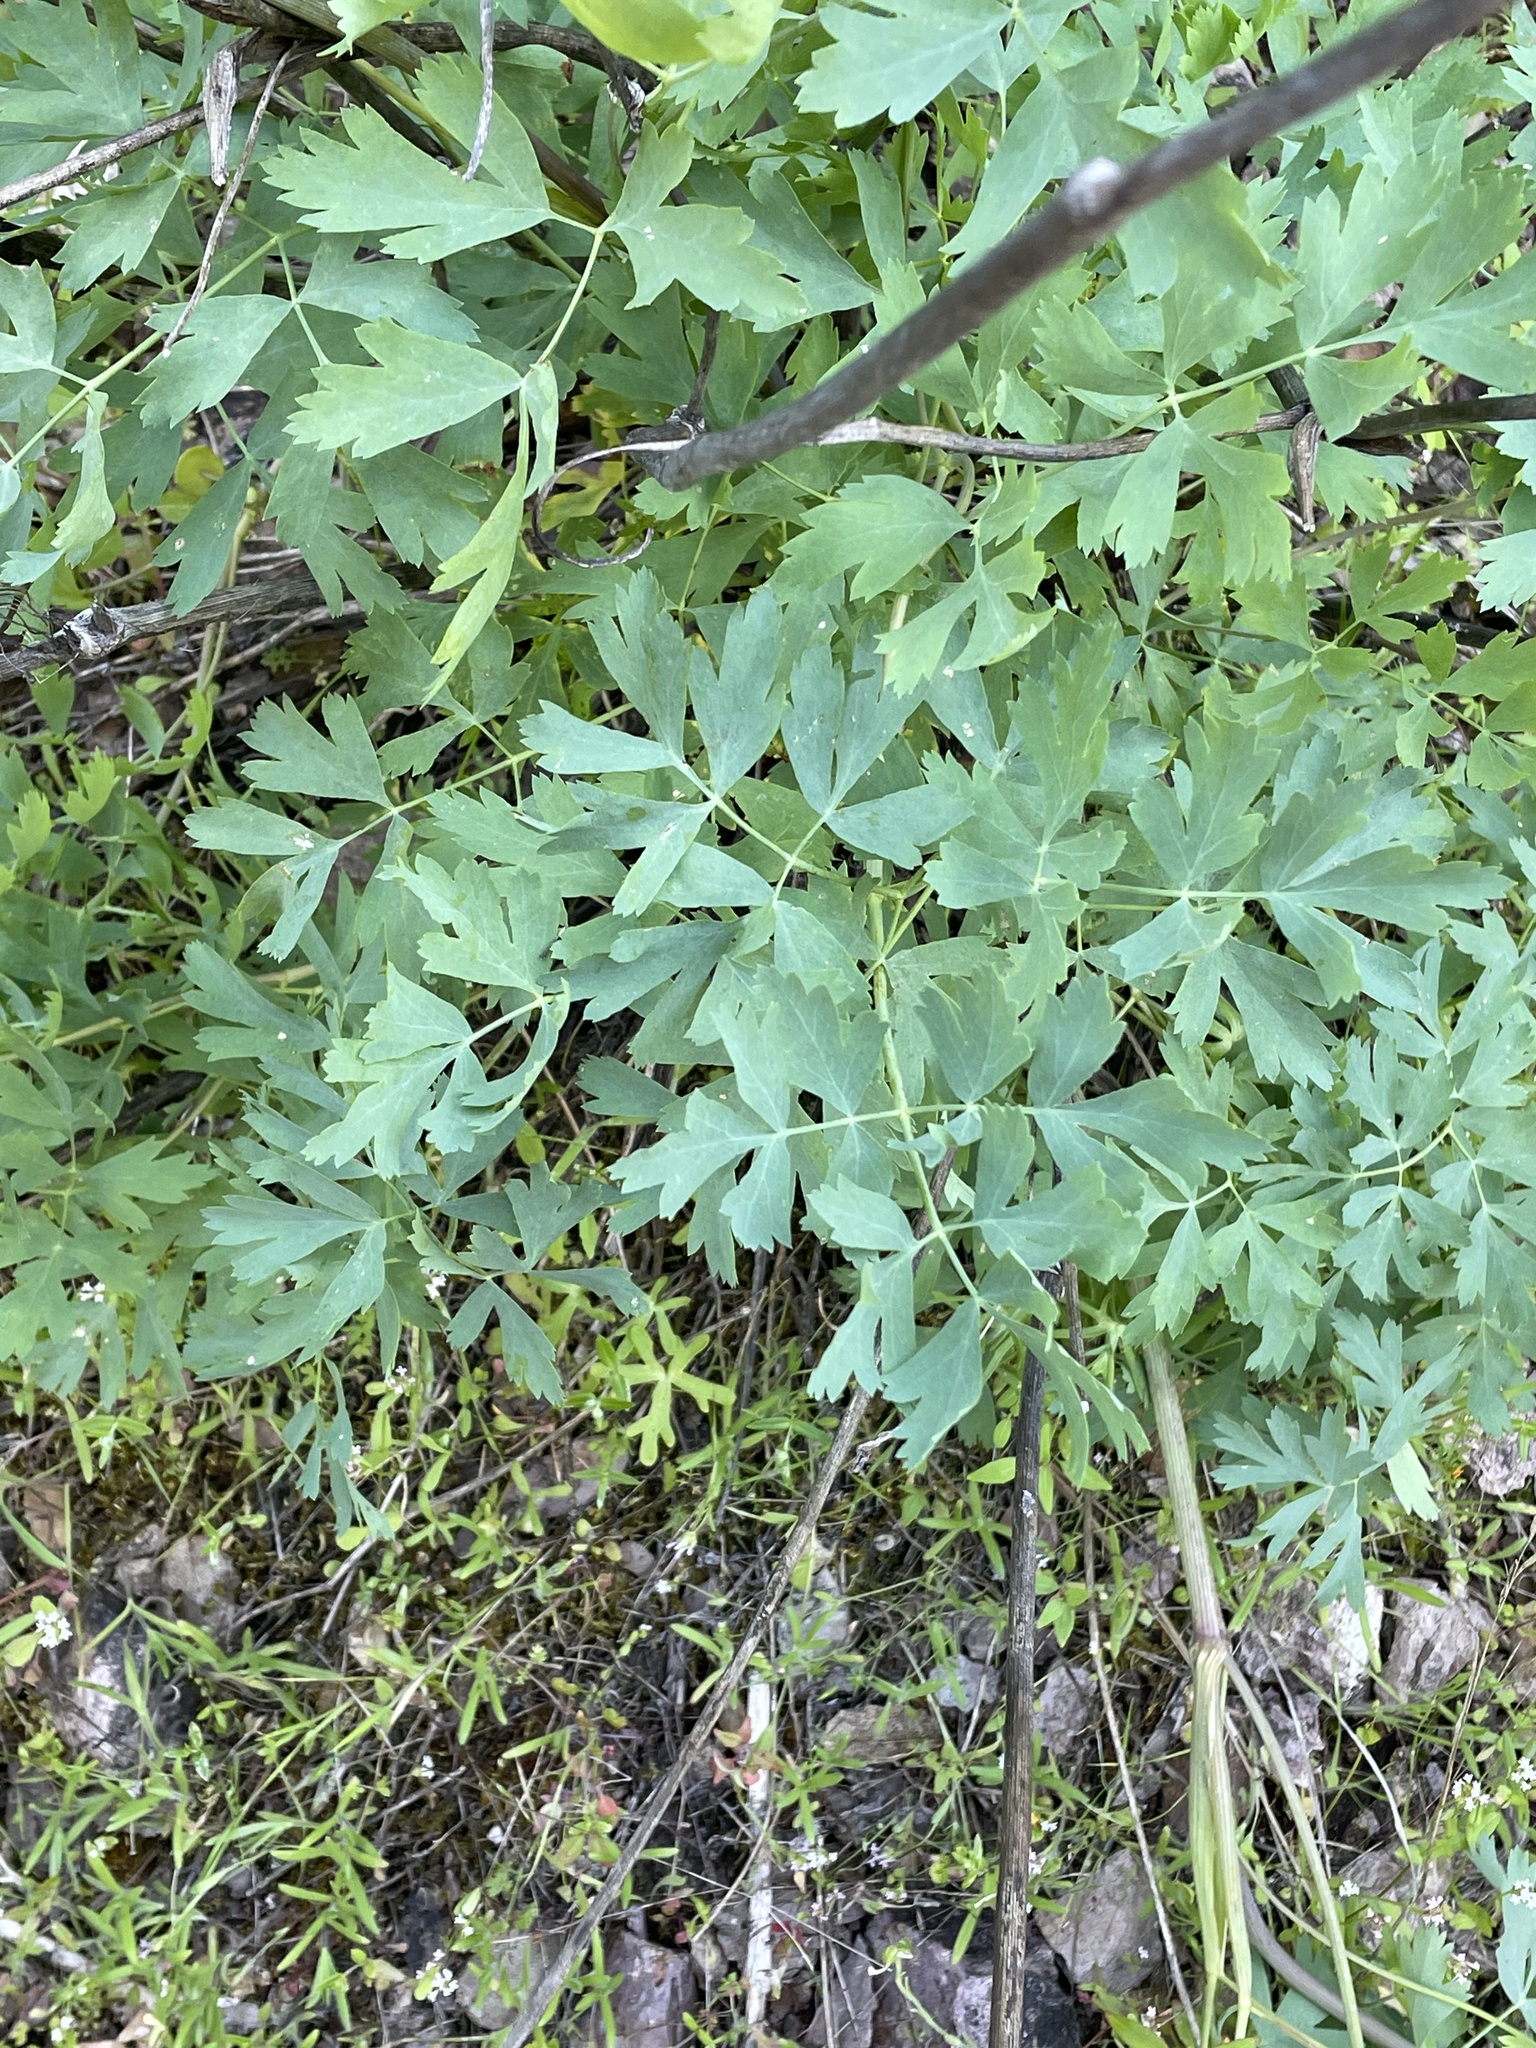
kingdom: Plantae
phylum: Tracheophyta
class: Magnoliopsida
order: Apiales
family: Apiaceae
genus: Lomatium
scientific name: Lomatium californicum
